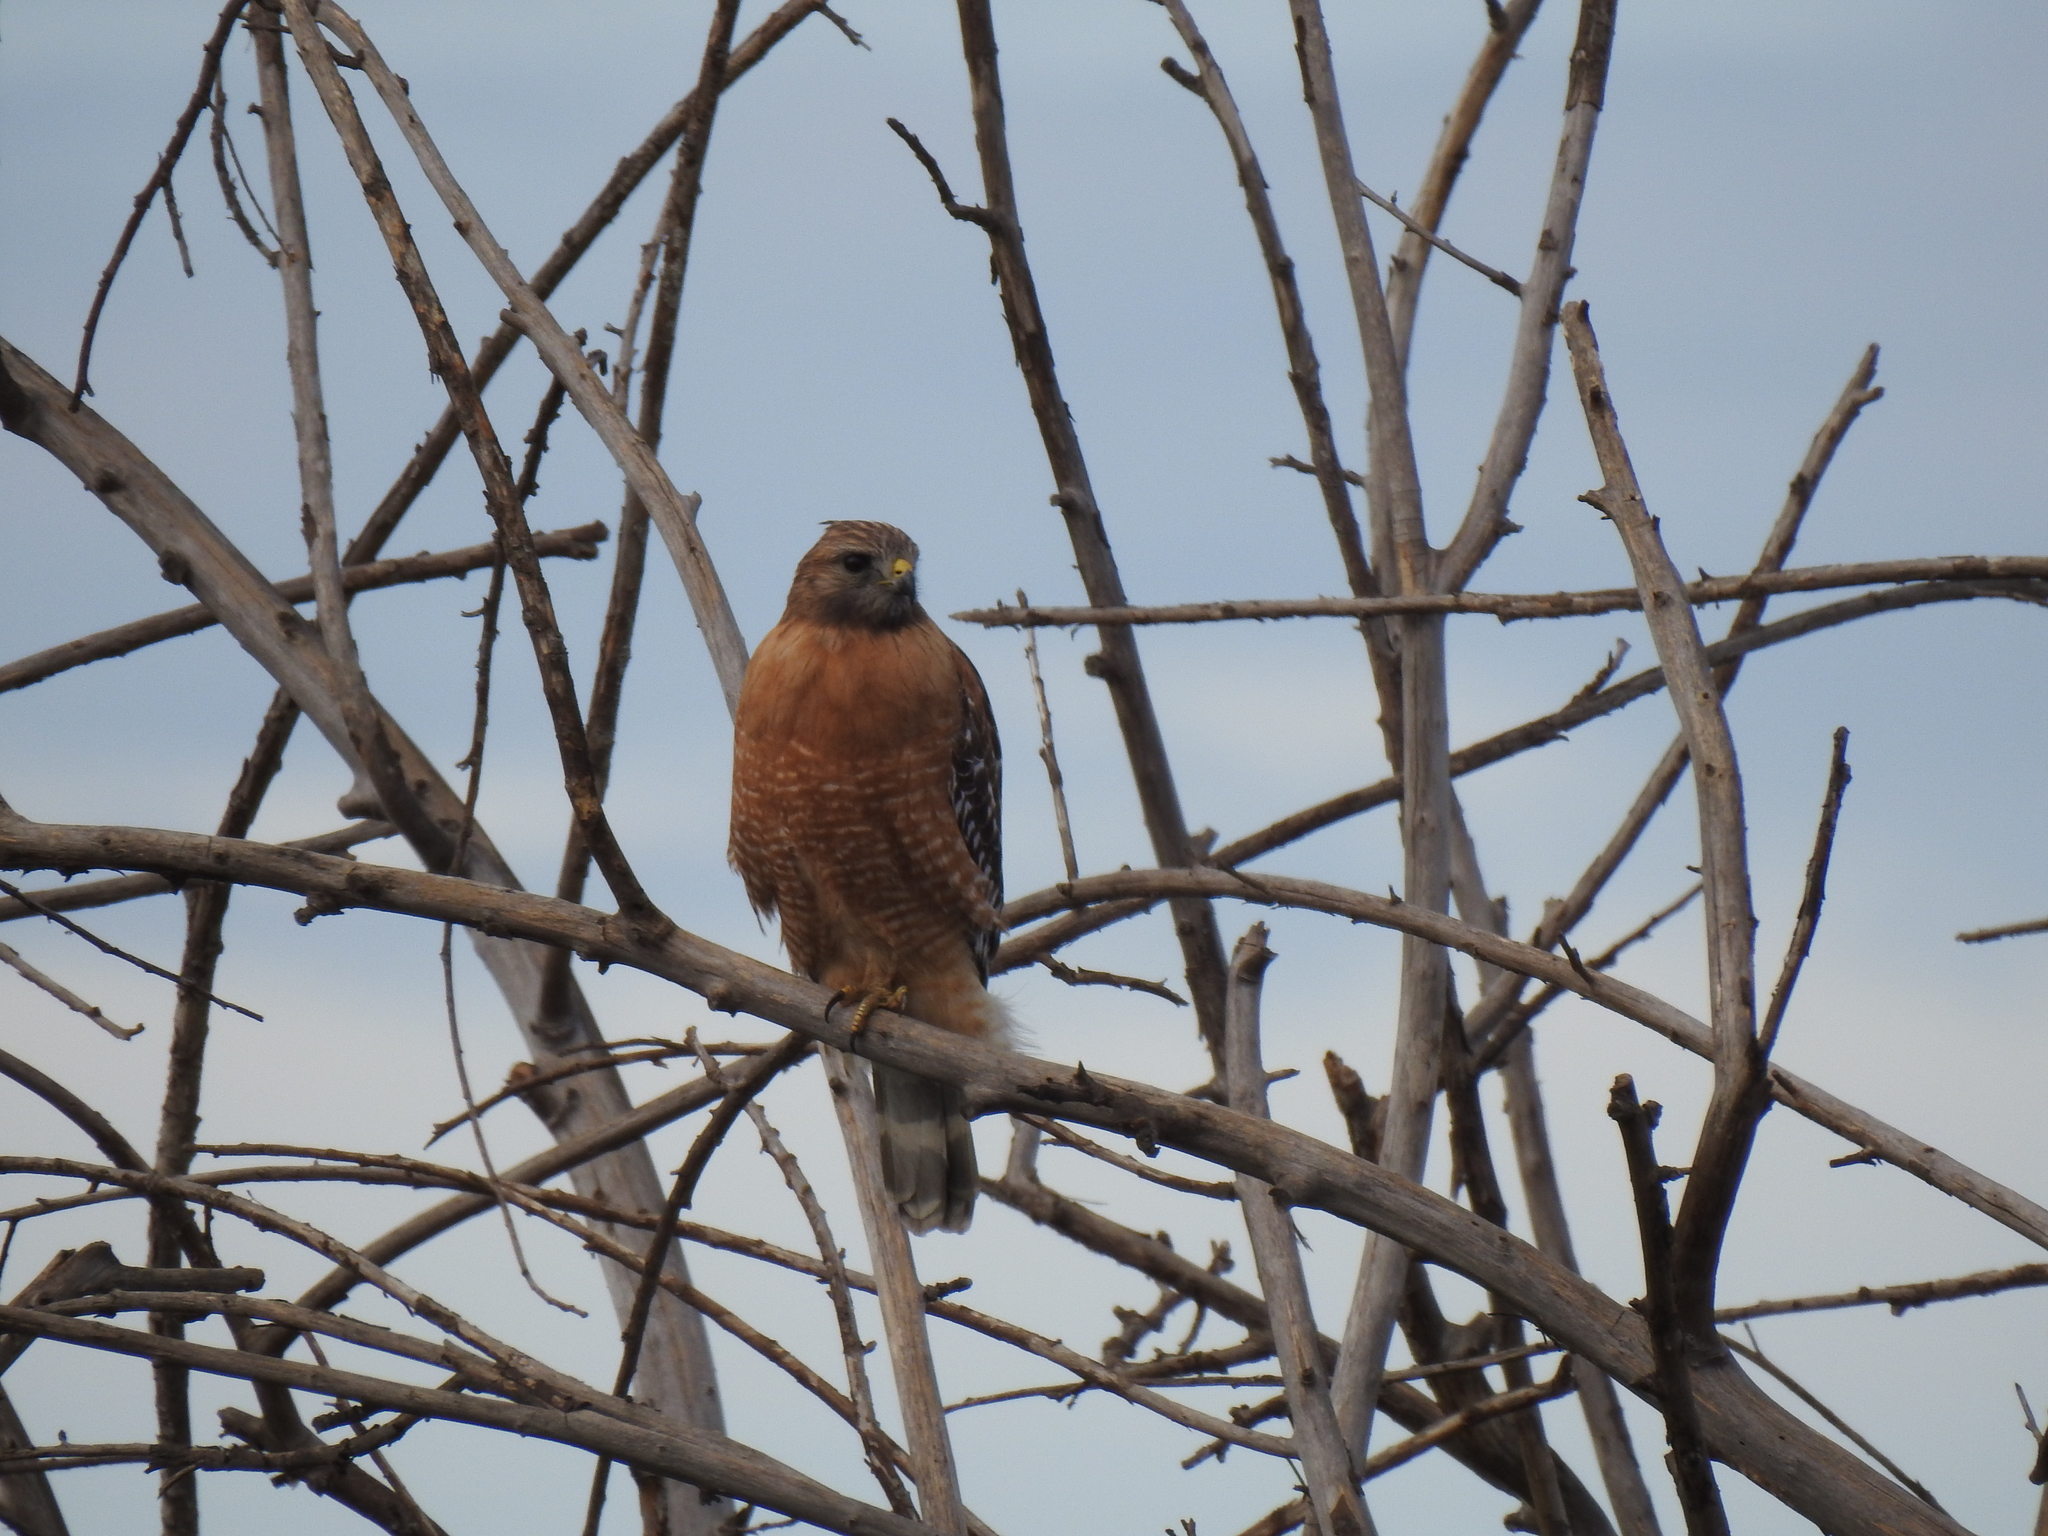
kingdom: Animalia
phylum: Chordata
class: Aves
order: Accipitriformes
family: Accipitridae
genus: Buteo
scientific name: Buteo lineatus
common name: Red-shouldered hawk
